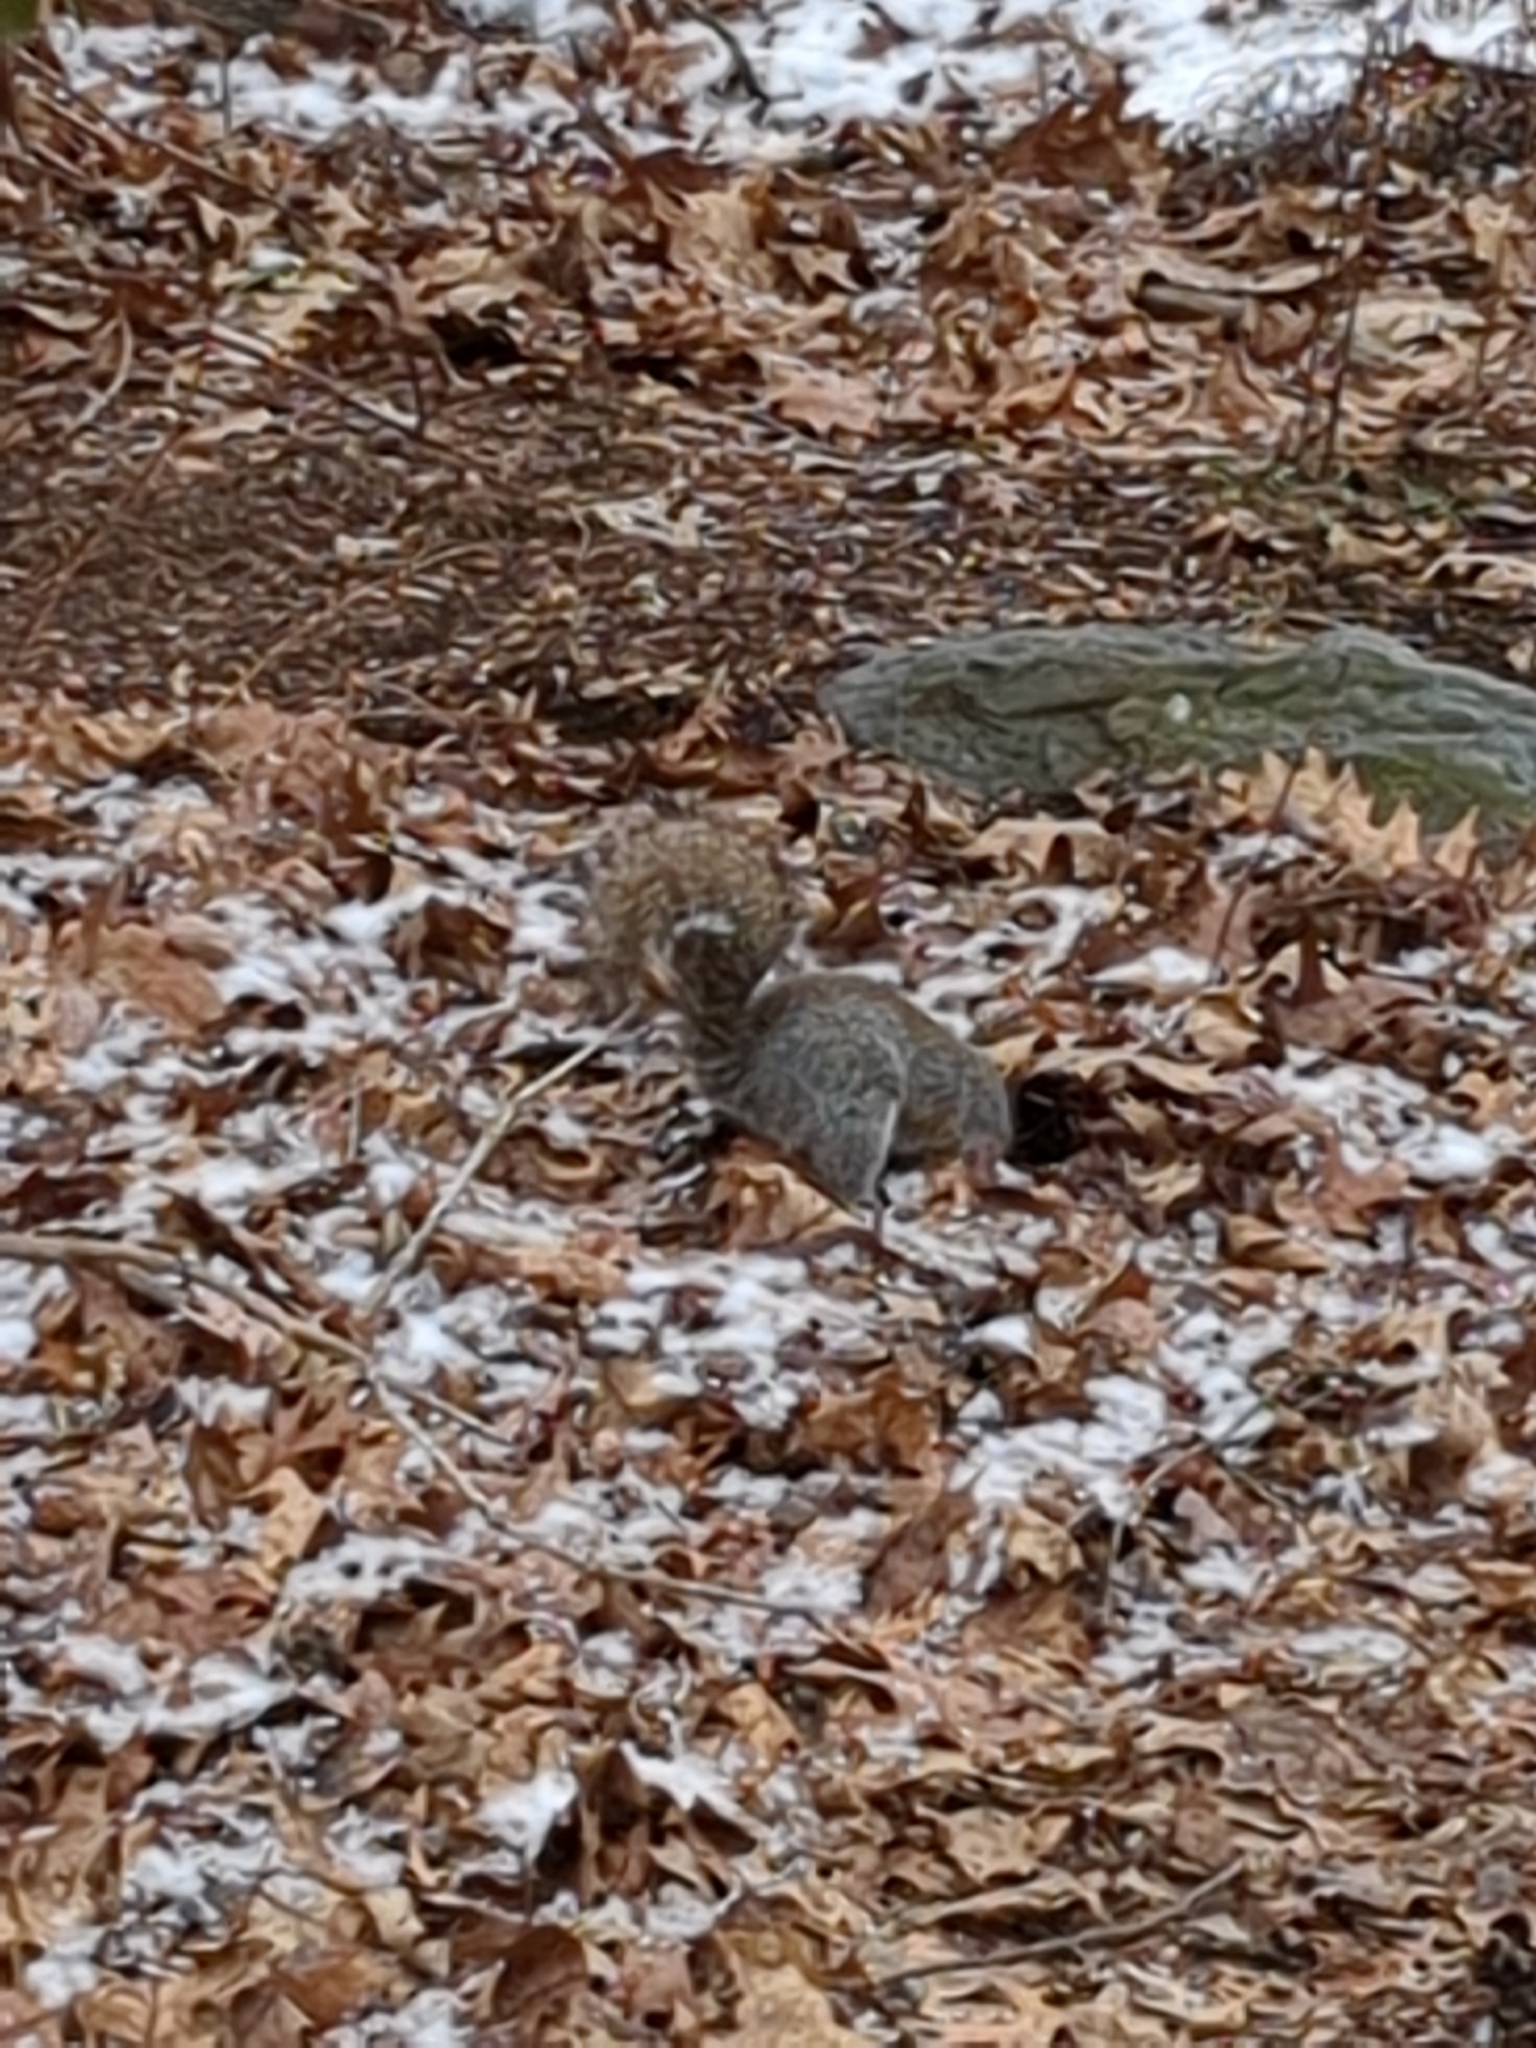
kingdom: Animalia
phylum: Chordata
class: Mammalia
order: Rodentia
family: Sciuridae
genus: Sciurus
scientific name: Sciurus carolinensis
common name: Eastern gray squirrel
